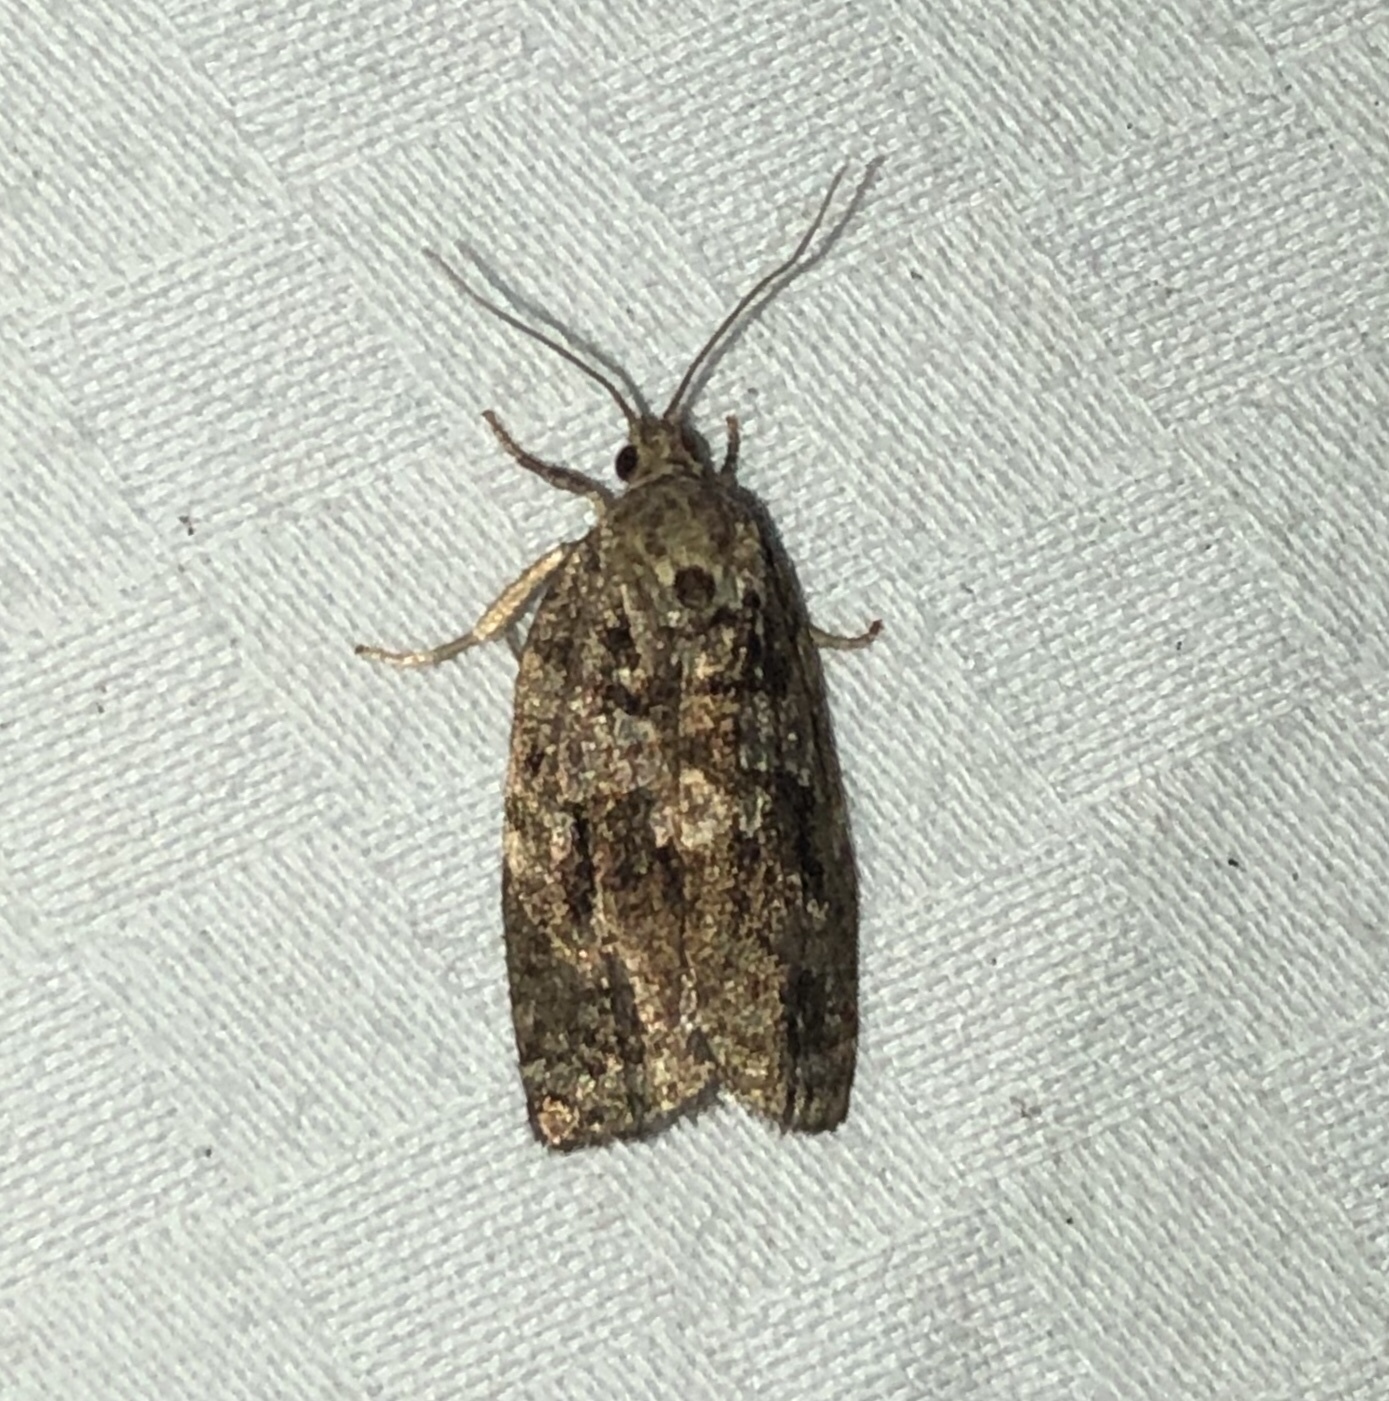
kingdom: Animalia
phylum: Arthropoda
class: Insecta
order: Lepidoptera
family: Tortricidae
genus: Choristoneura
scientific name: Choristoneura fumiferana
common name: Spruce budworm
